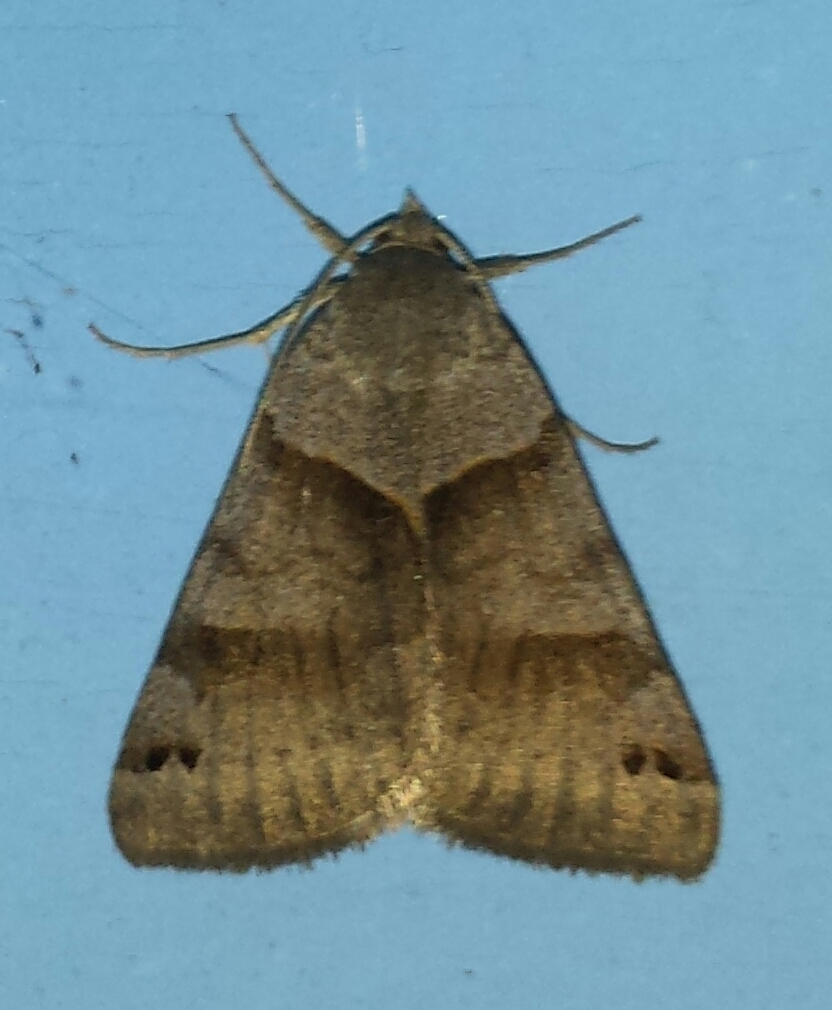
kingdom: Animalia
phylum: Arthropoda
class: Insecta
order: Lepidoptera
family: Erebidae
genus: Caenurgina
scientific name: Caenurgina crassiuscula
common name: Double-barred
